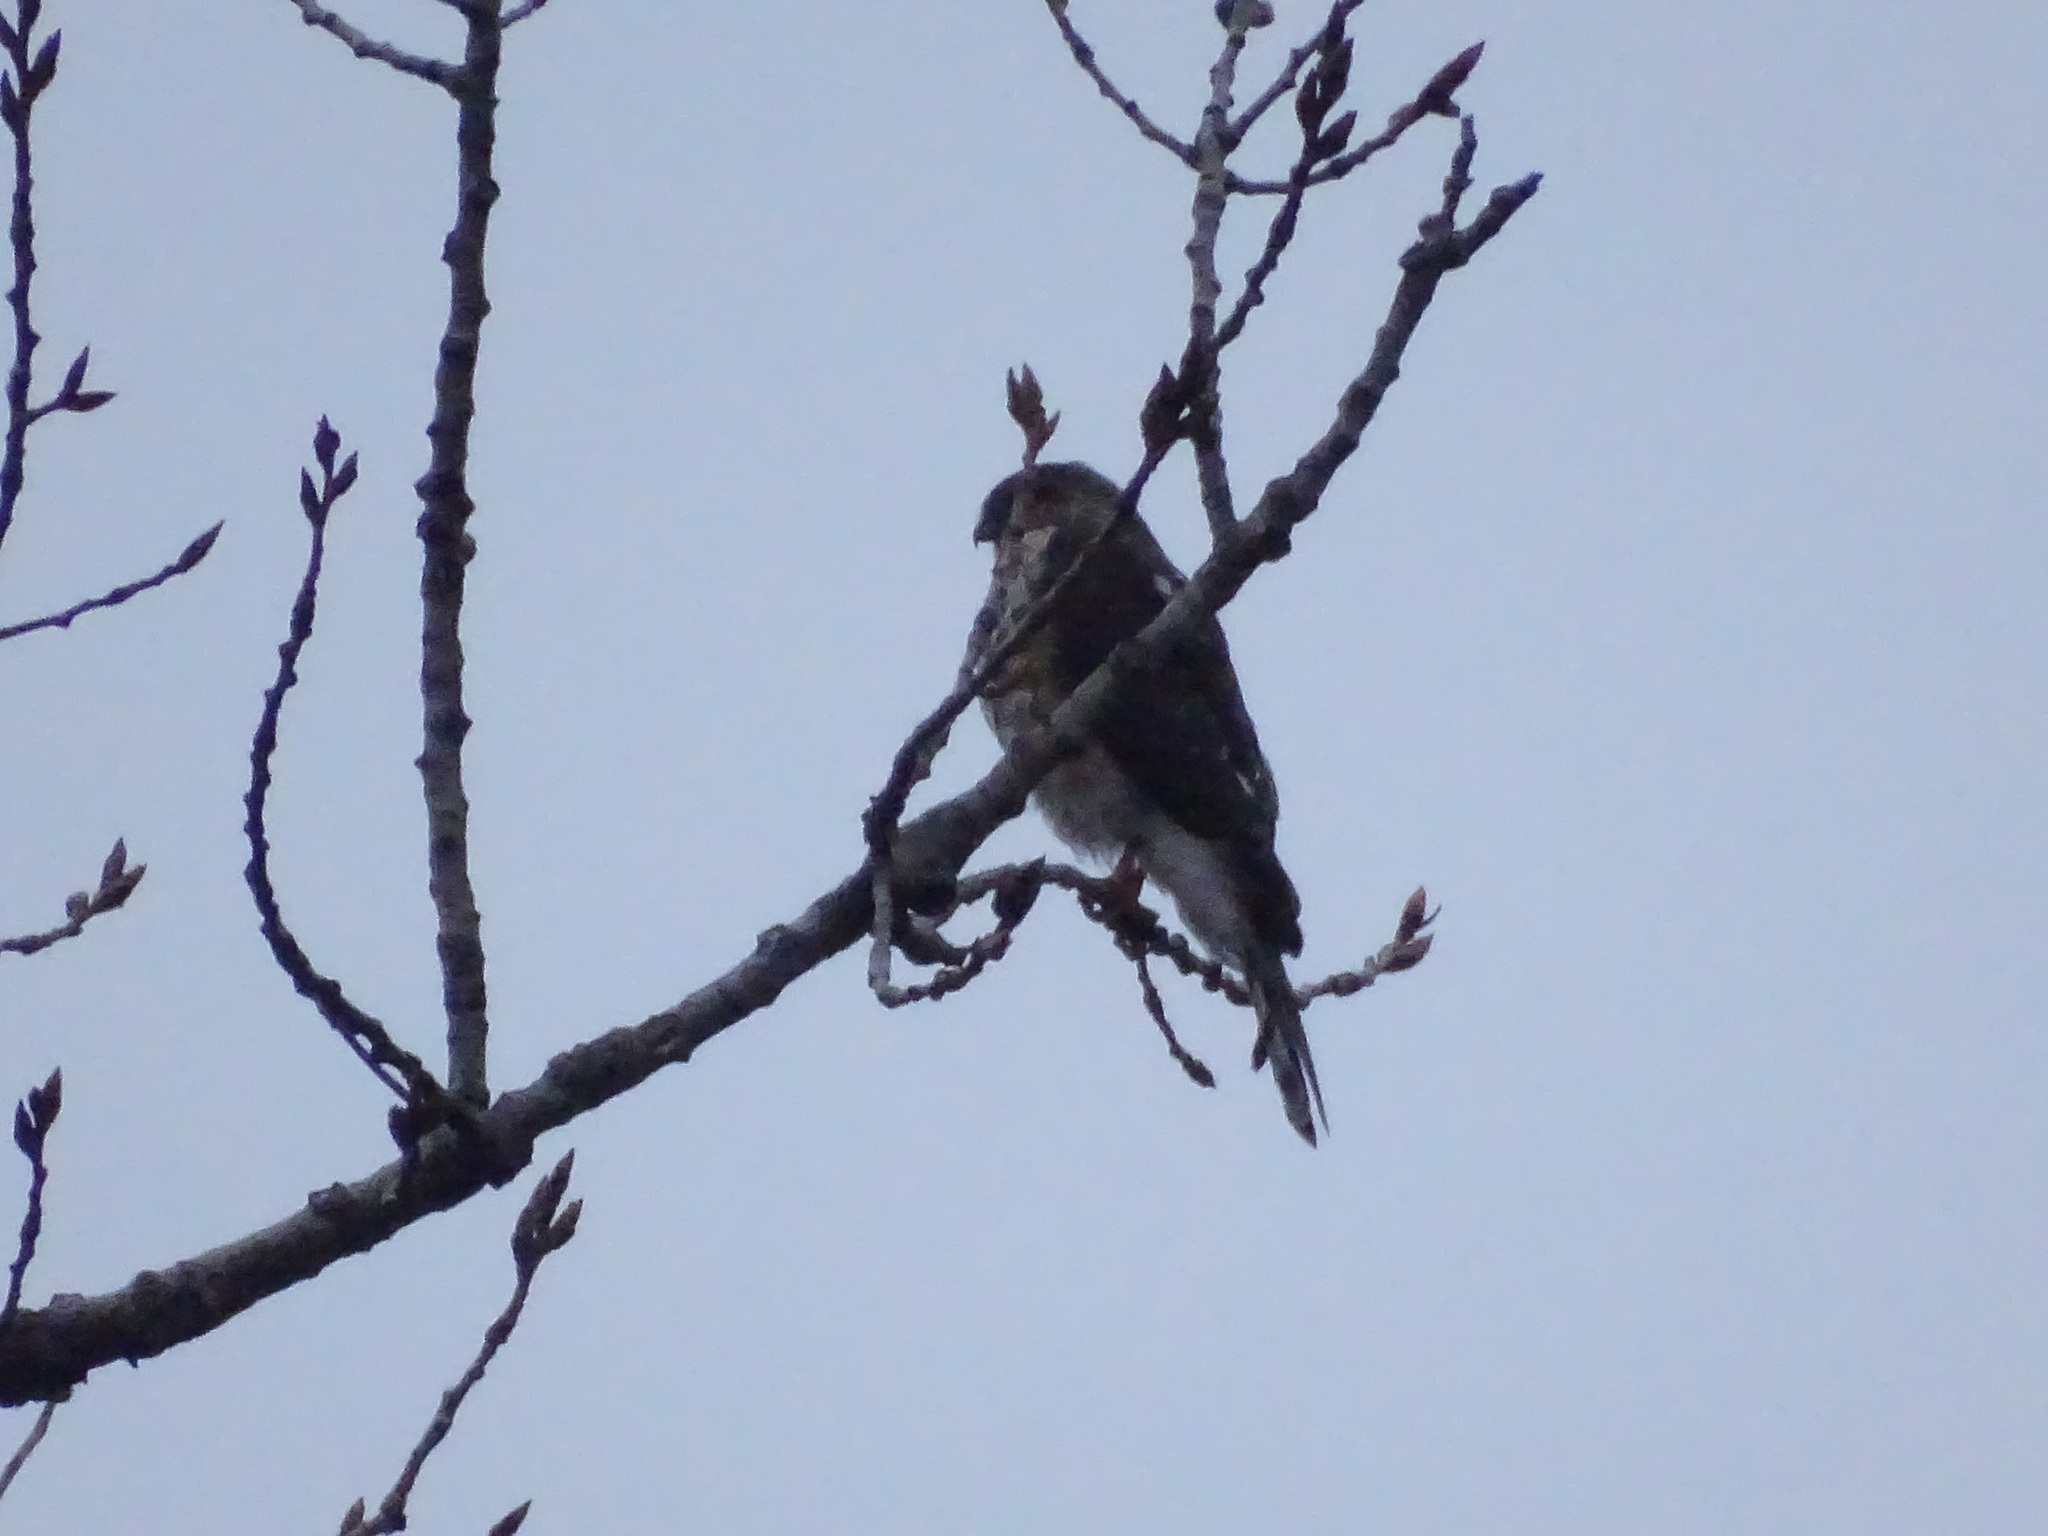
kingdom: Animalia
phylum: Chordata
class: Aves
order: Accipitriformes
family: Accipitridae
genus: Accipiter
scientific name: Accipiter striatus
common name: Sharp-shinned hawk
